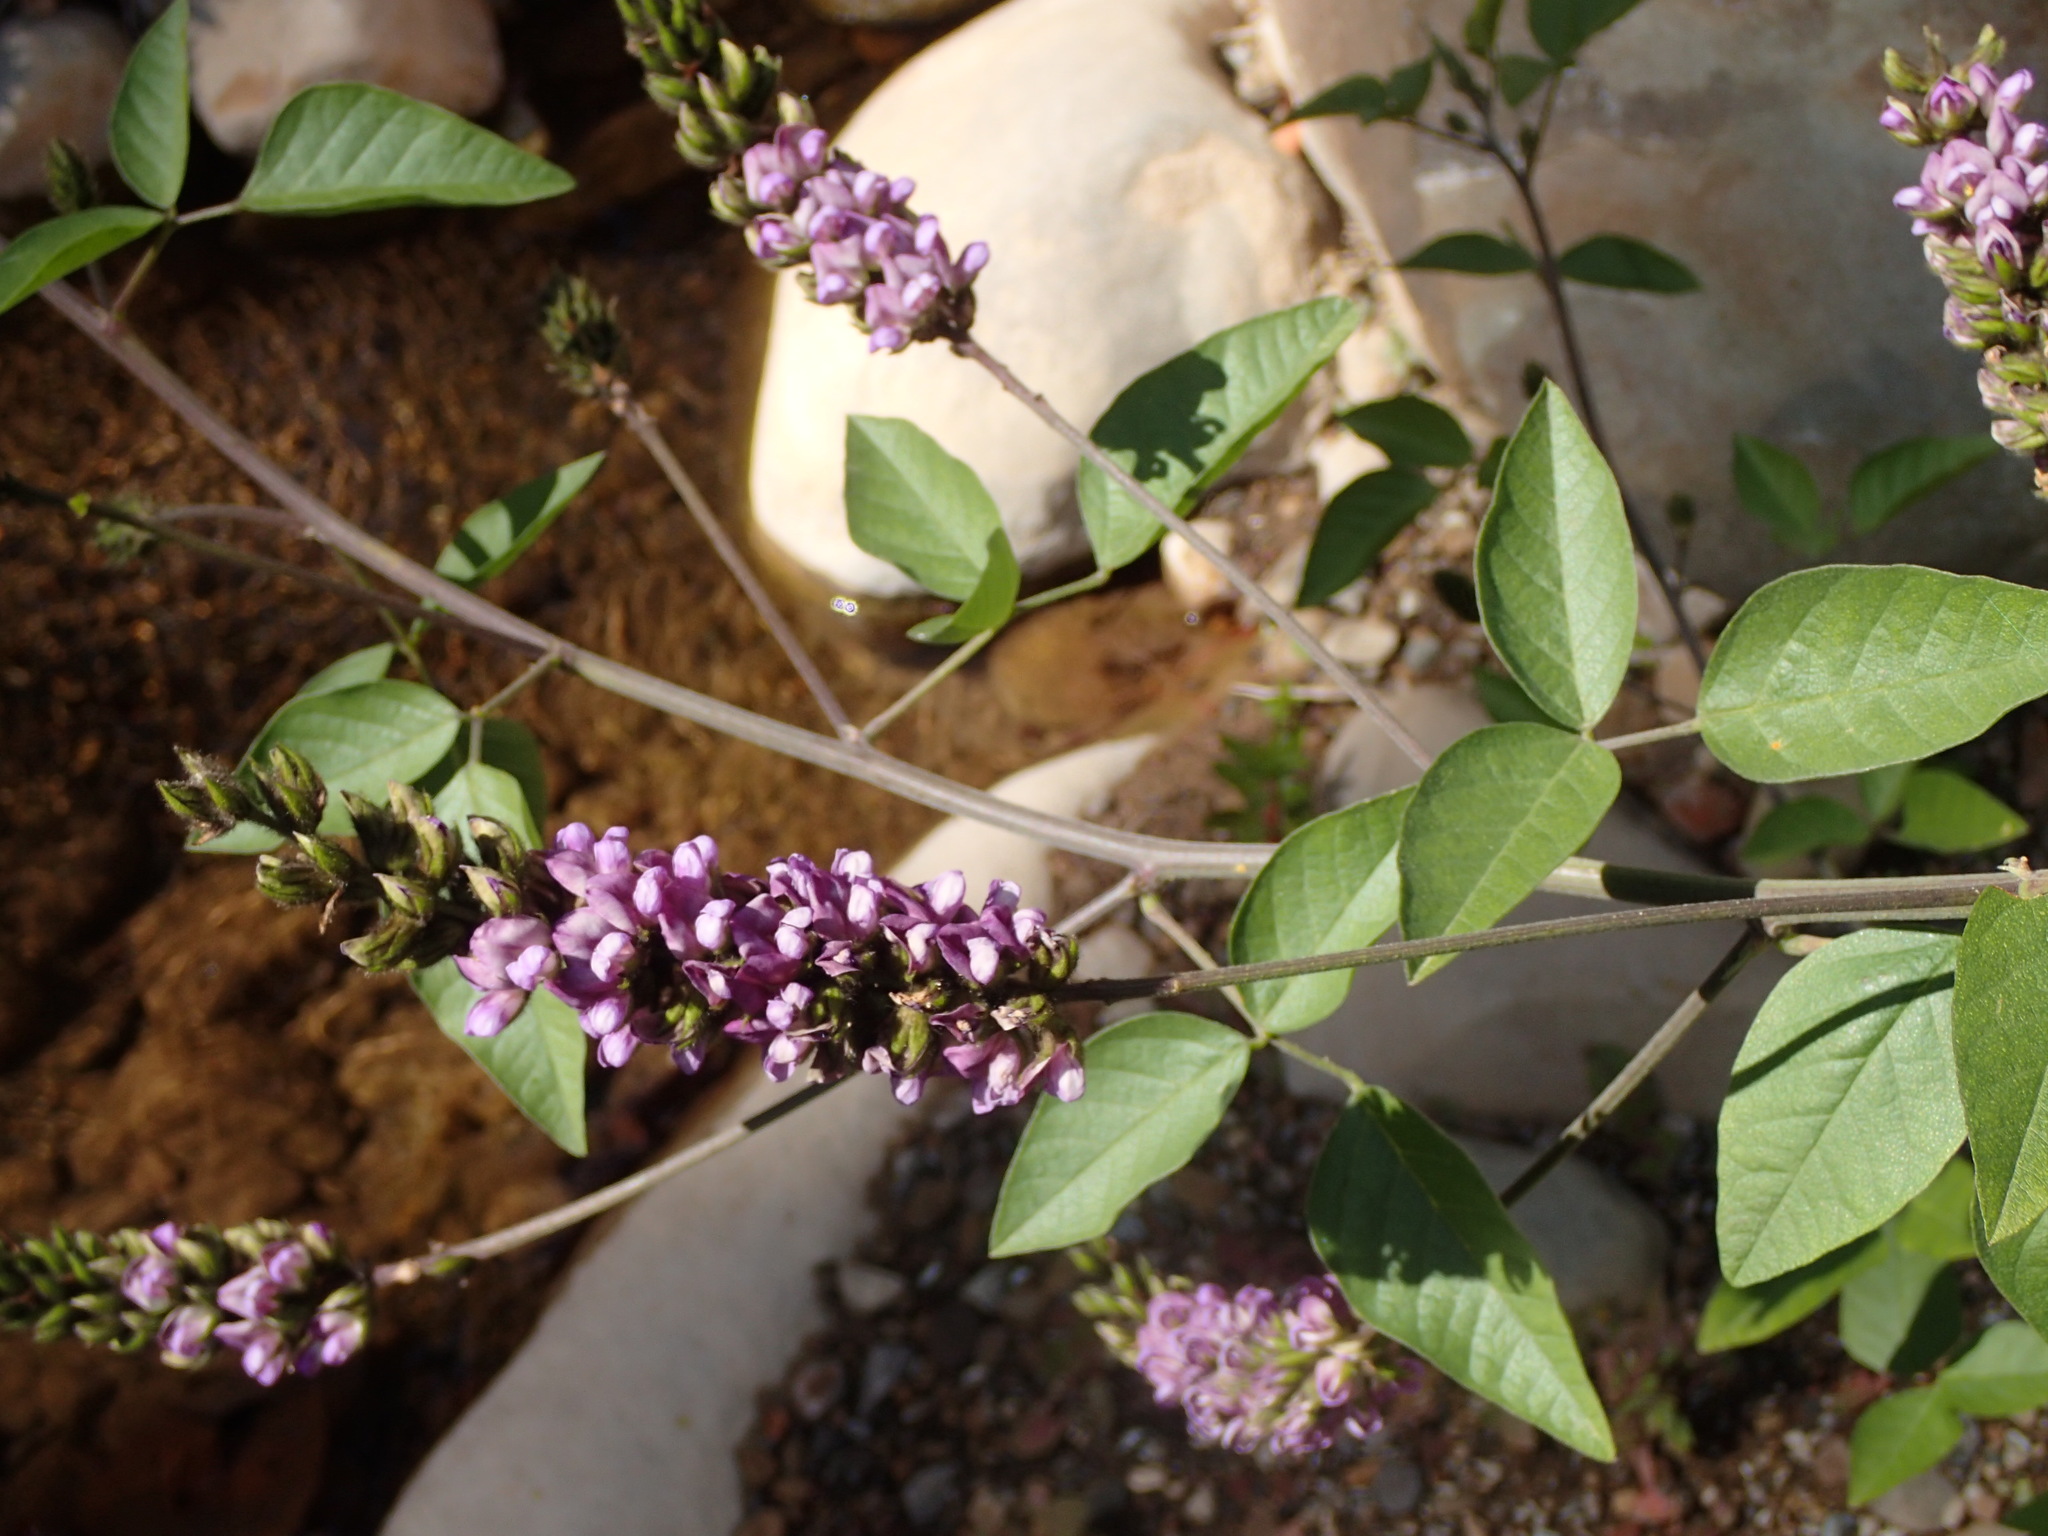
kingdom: Plantae
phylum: Tracheophyta
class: Magnoliopsida
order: Fabales
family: Fabaceae
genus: Hoita
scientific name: Hoita macrostachya
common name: Leatherroot
